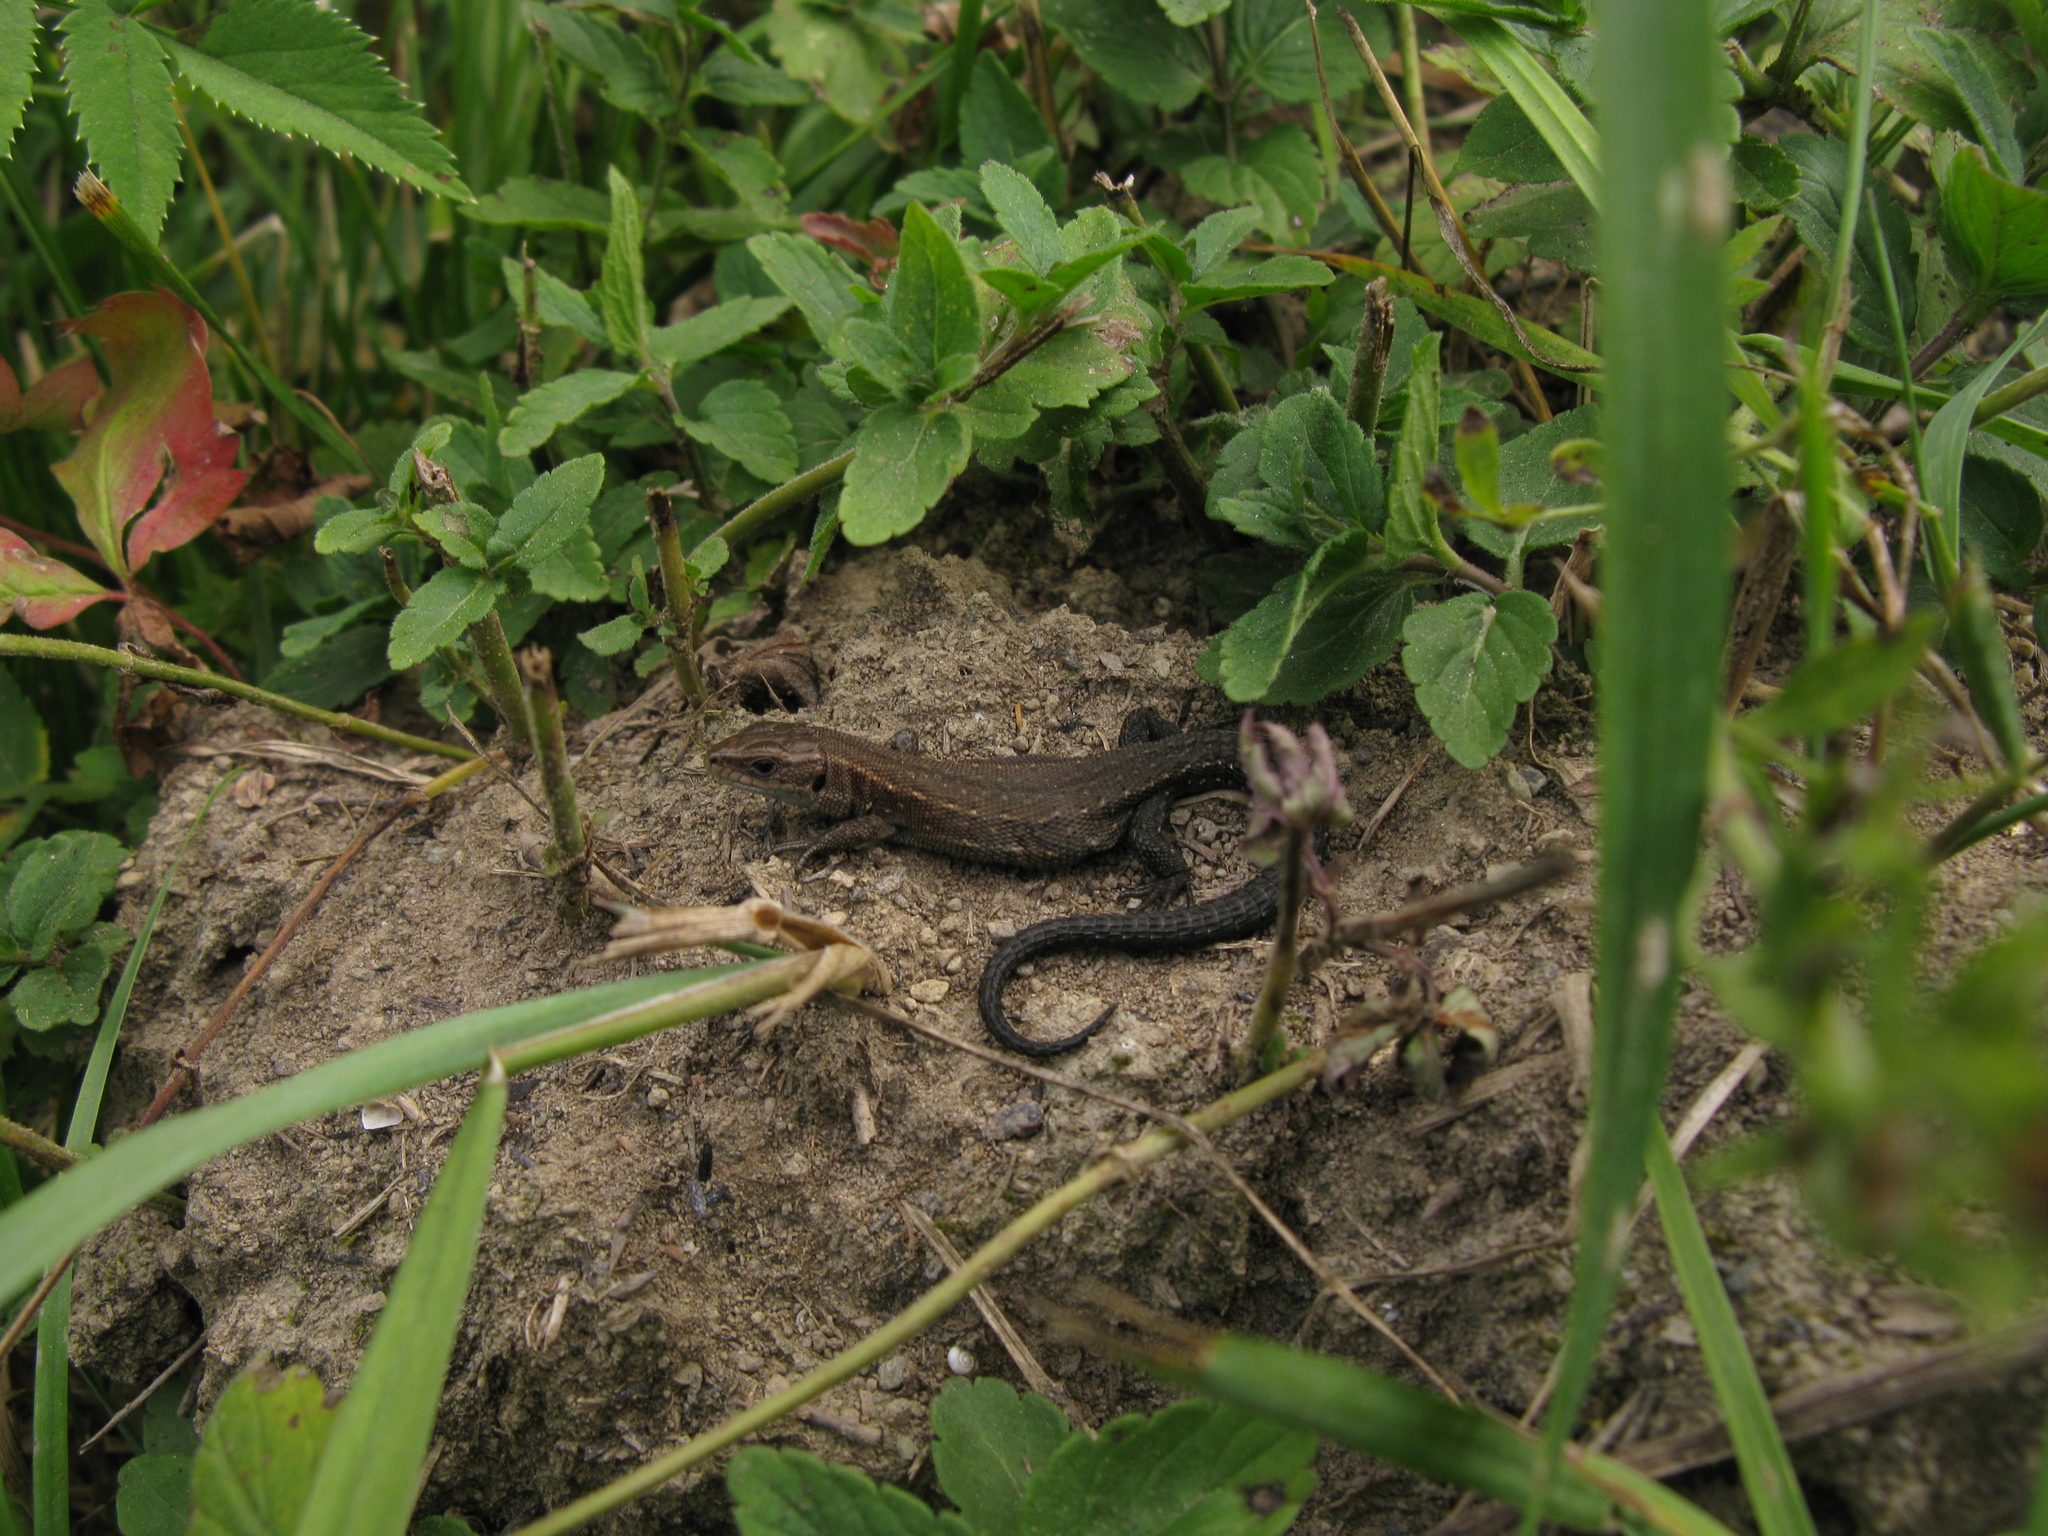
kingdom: Animalia
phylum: Chordata
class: Squamata
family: Lacertidae
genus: Zootoca
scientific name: Zootoca vivipara
